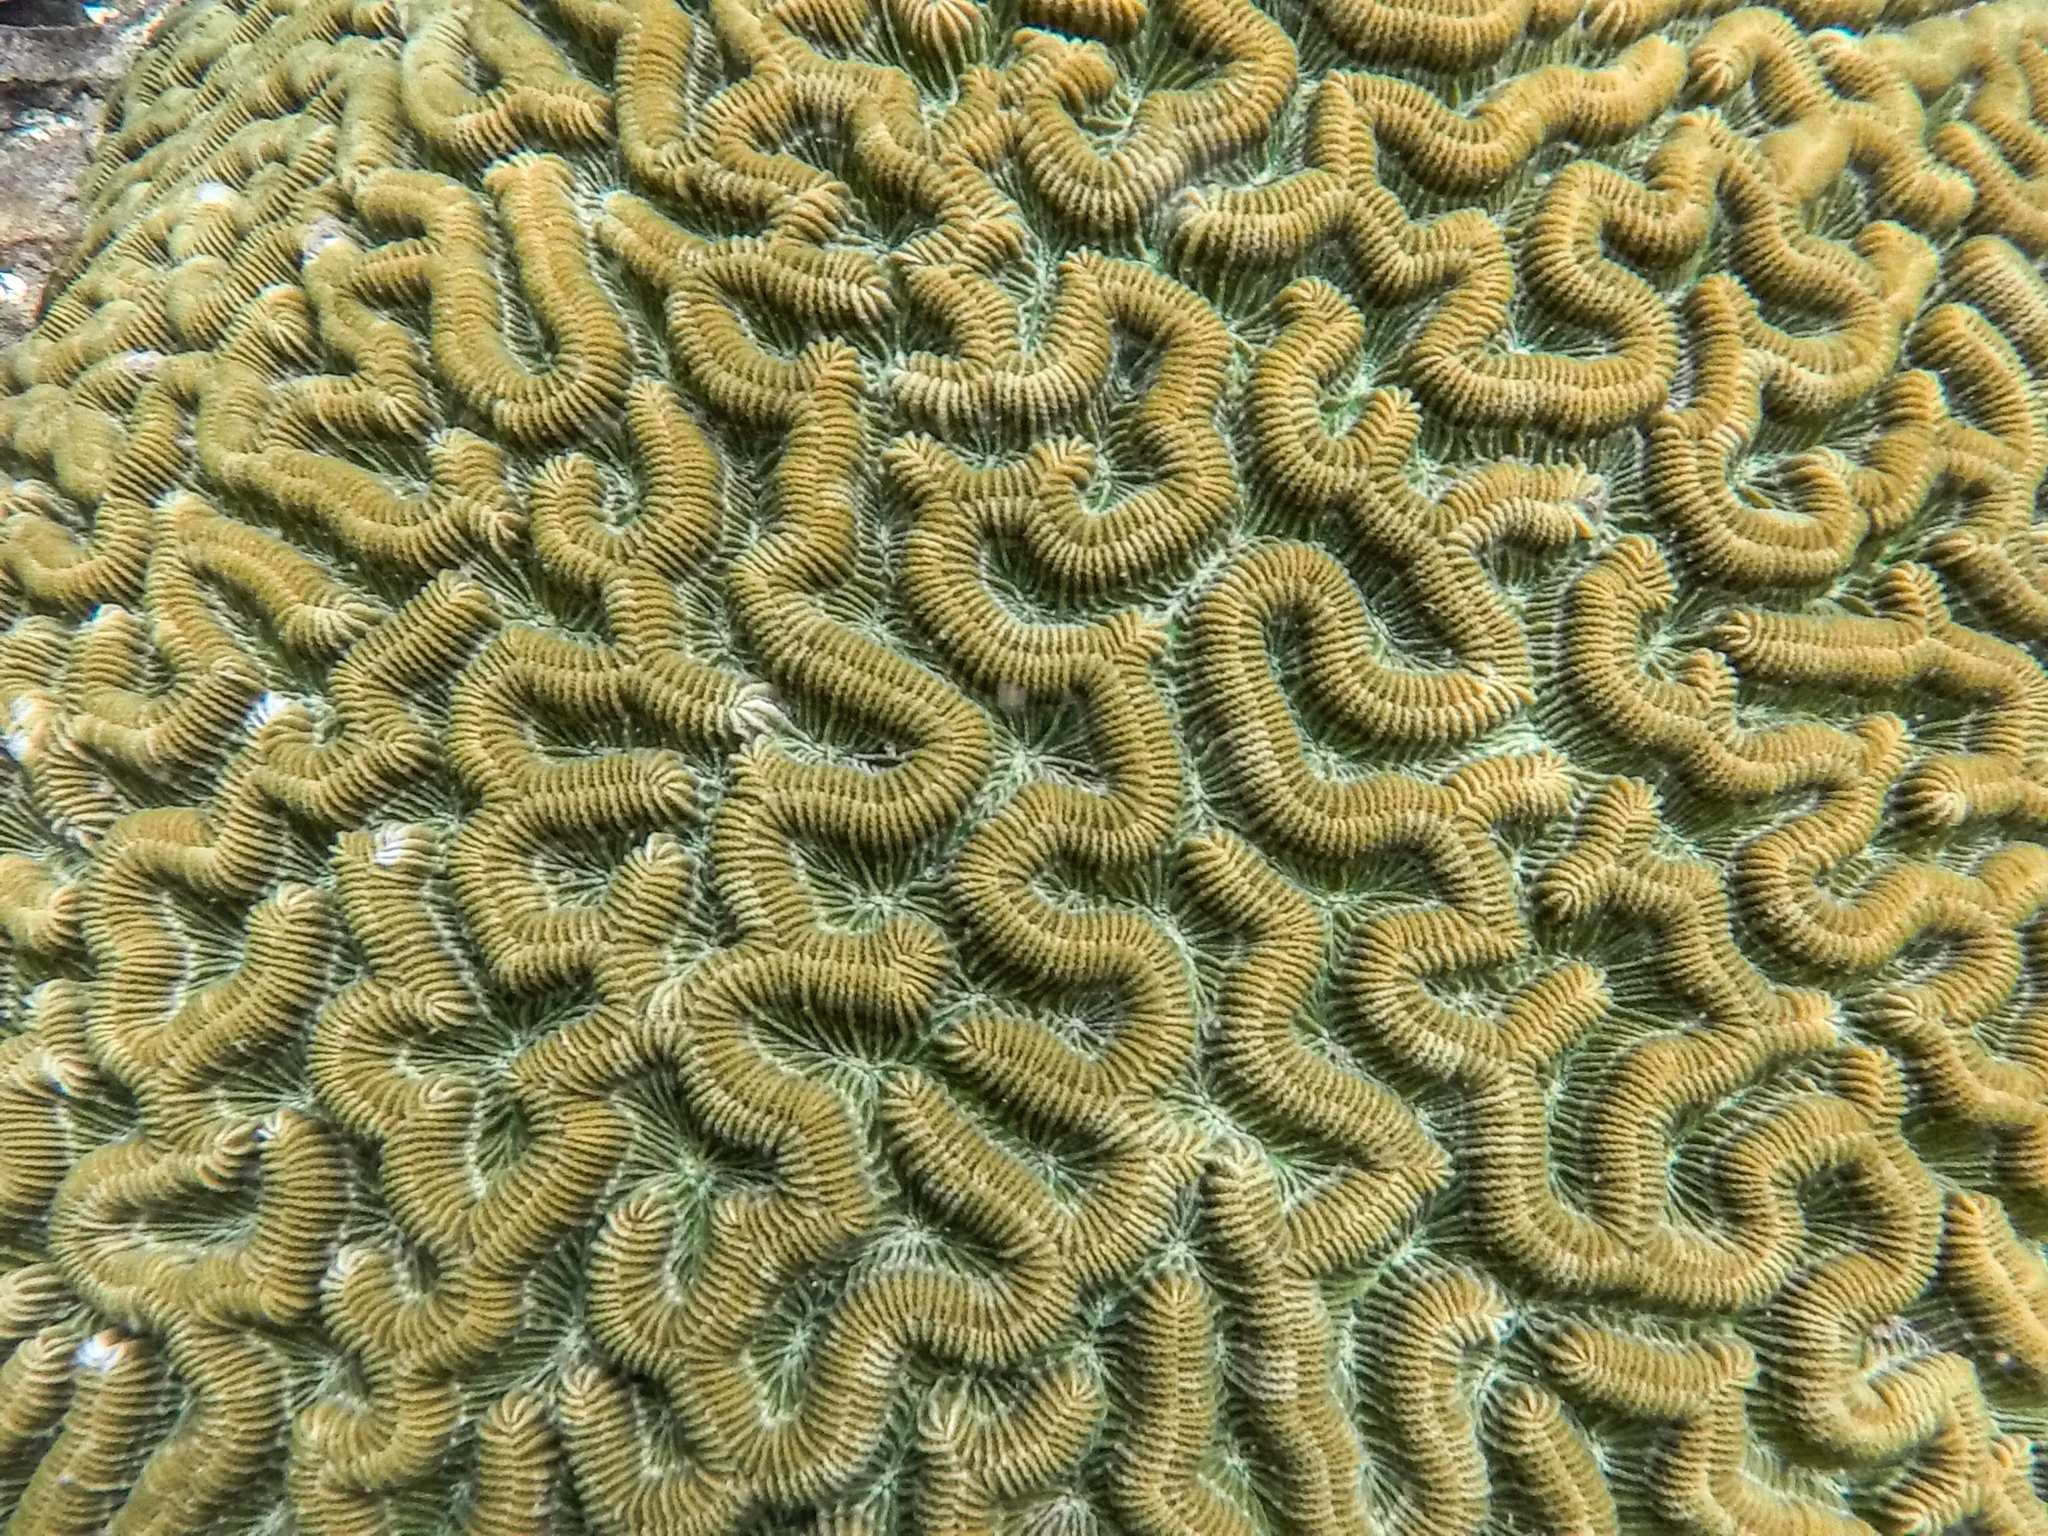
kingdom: Animalia
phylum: Cnidaria
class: Anthozoa
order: Scleractinia
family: Faviidae
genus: Colpophyllia
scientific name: Colpophyllia natans
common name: Boulder brain coral
